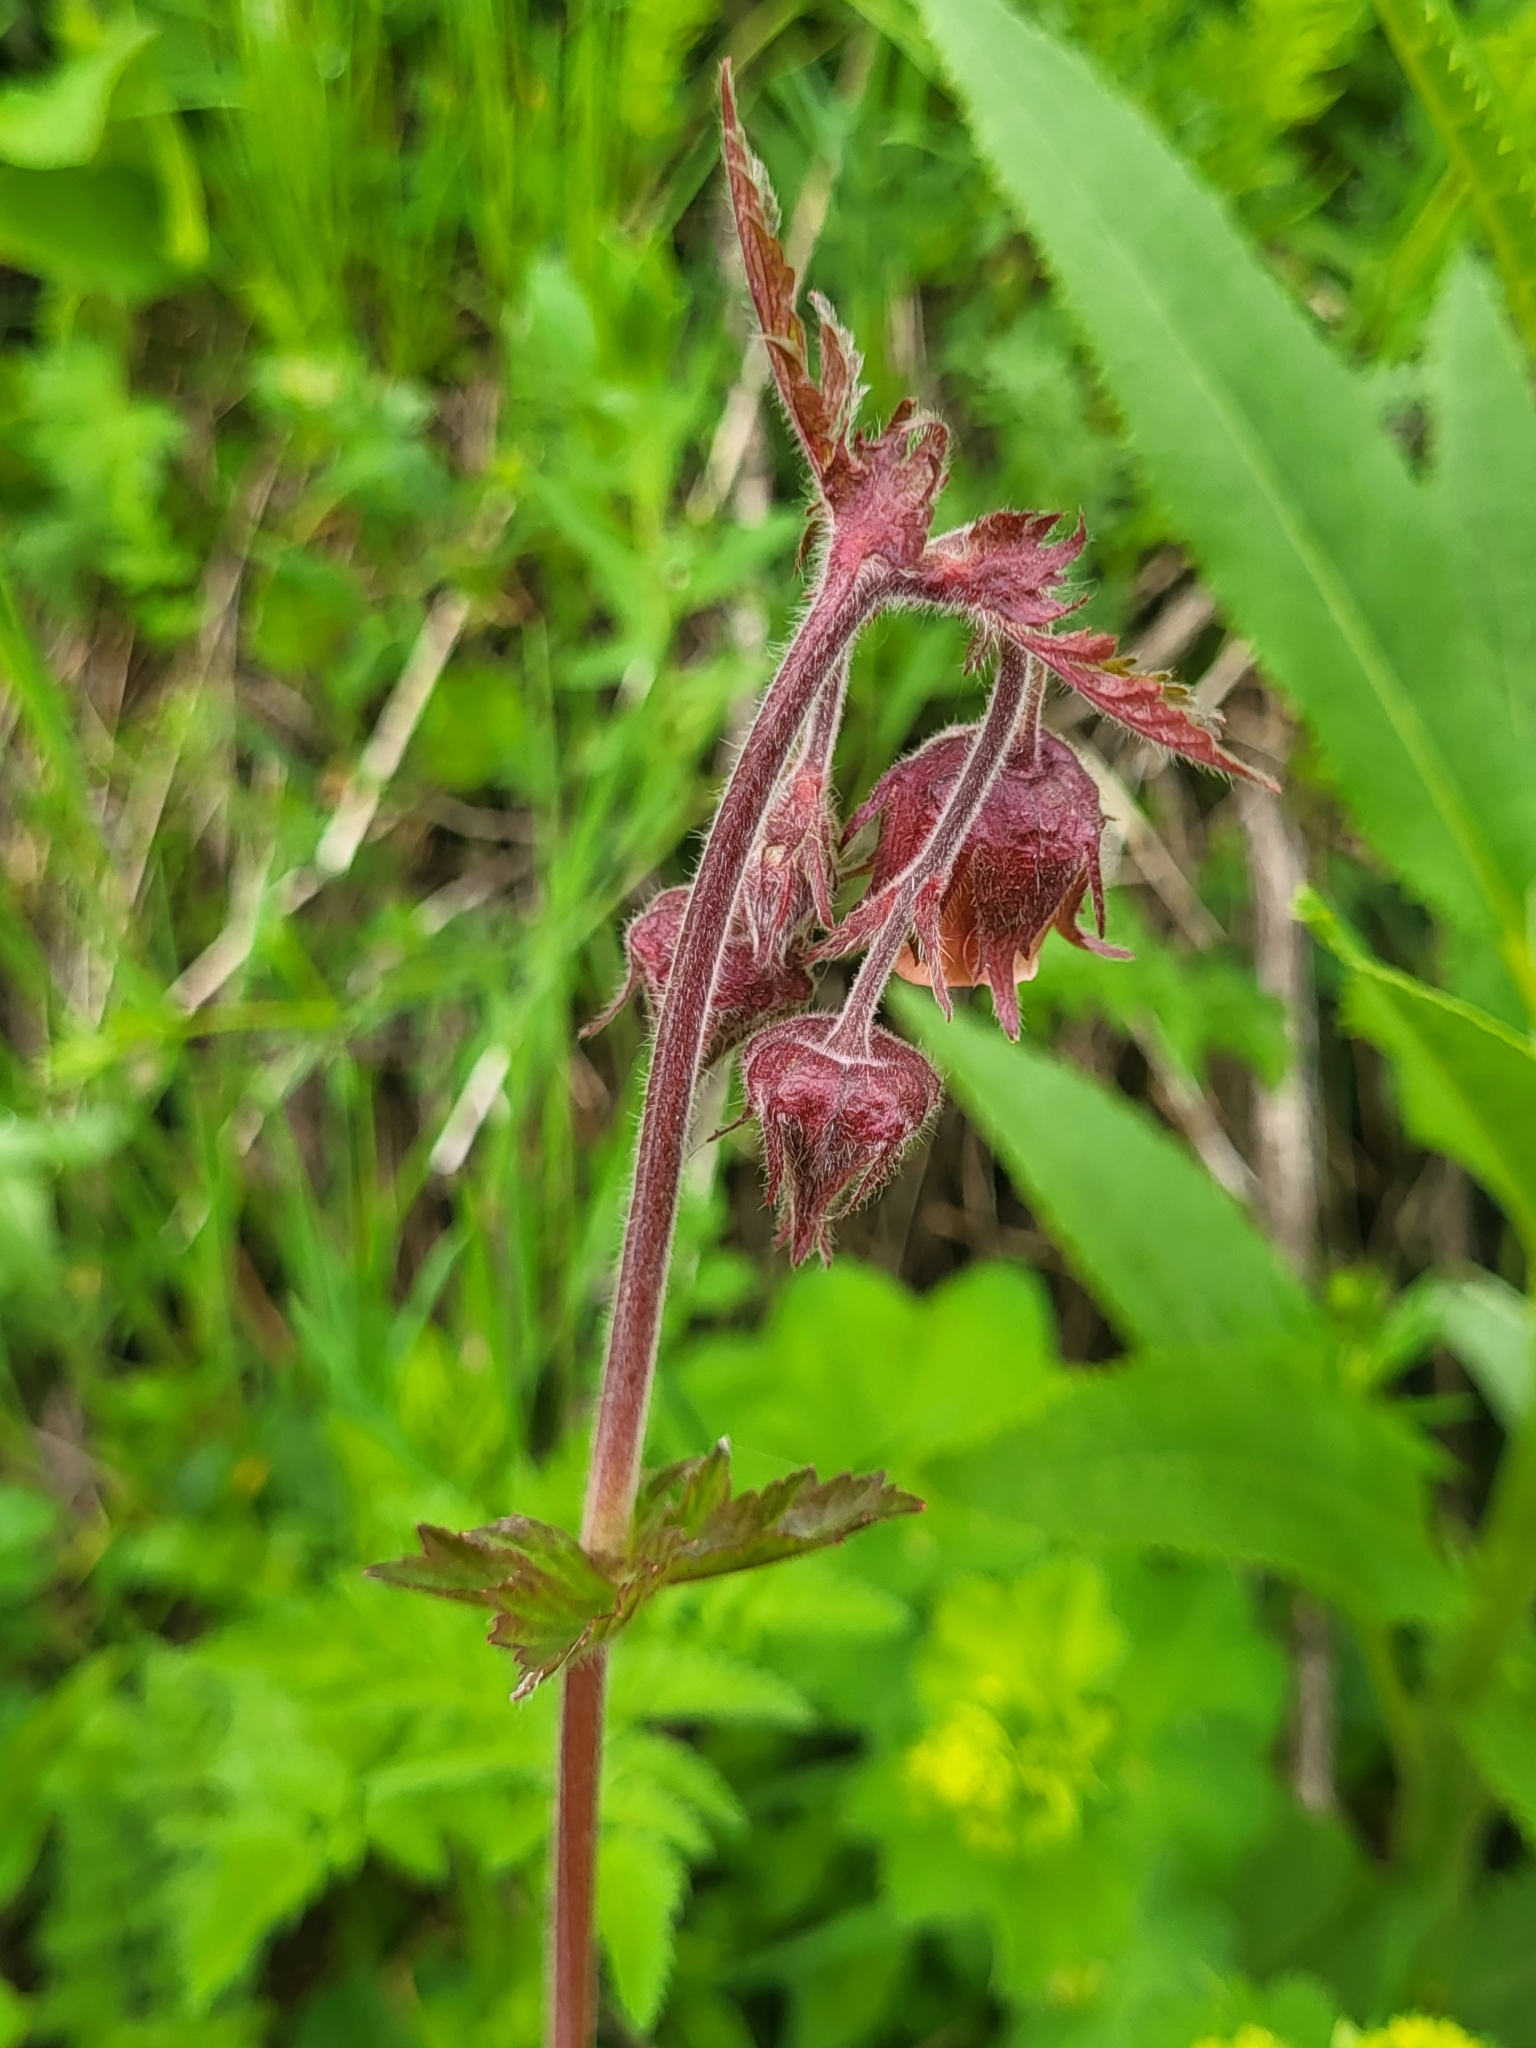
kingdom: Plantae
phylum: Tracheophyta
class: Magnoliopsida
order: Rosales
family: Rosaceae
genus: Geum
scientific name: Geum rivale
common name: Water avens
